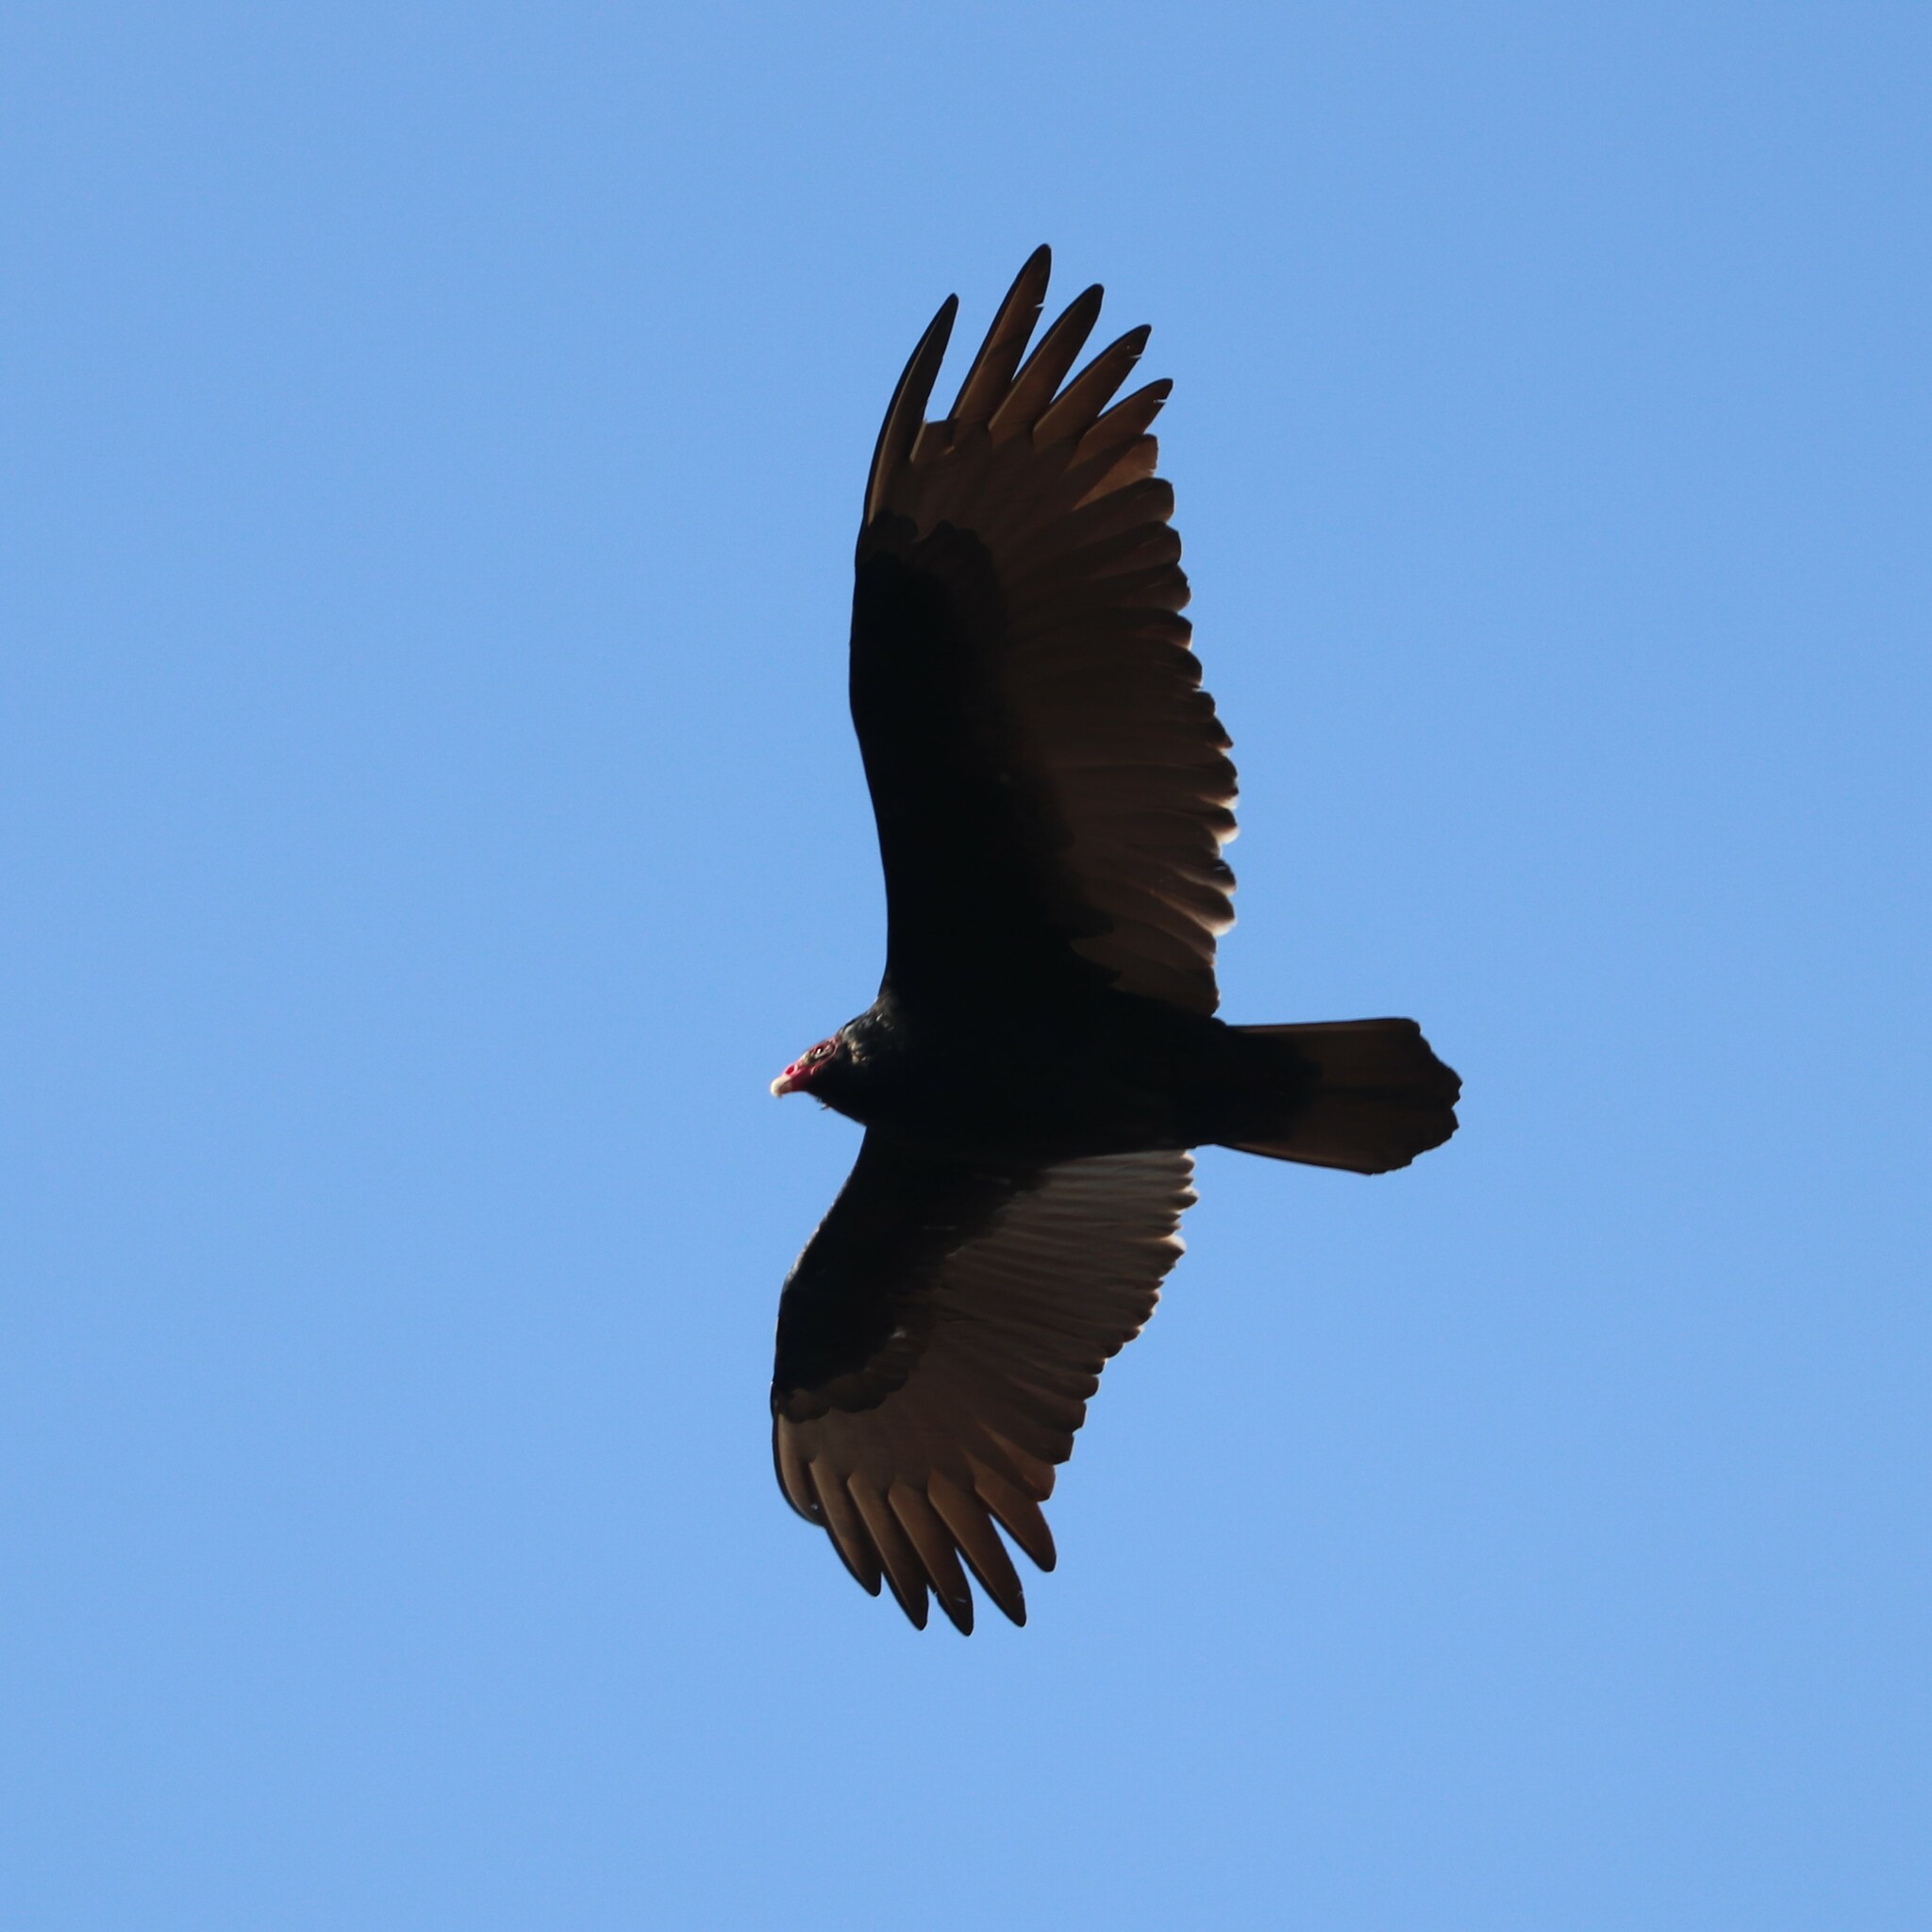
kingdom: Animalia
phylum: Chordata
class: Aves
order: Accipitriformes
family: Cathartidae
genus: Cathartes
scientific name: Cathartes aura
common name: Turkey vulture
